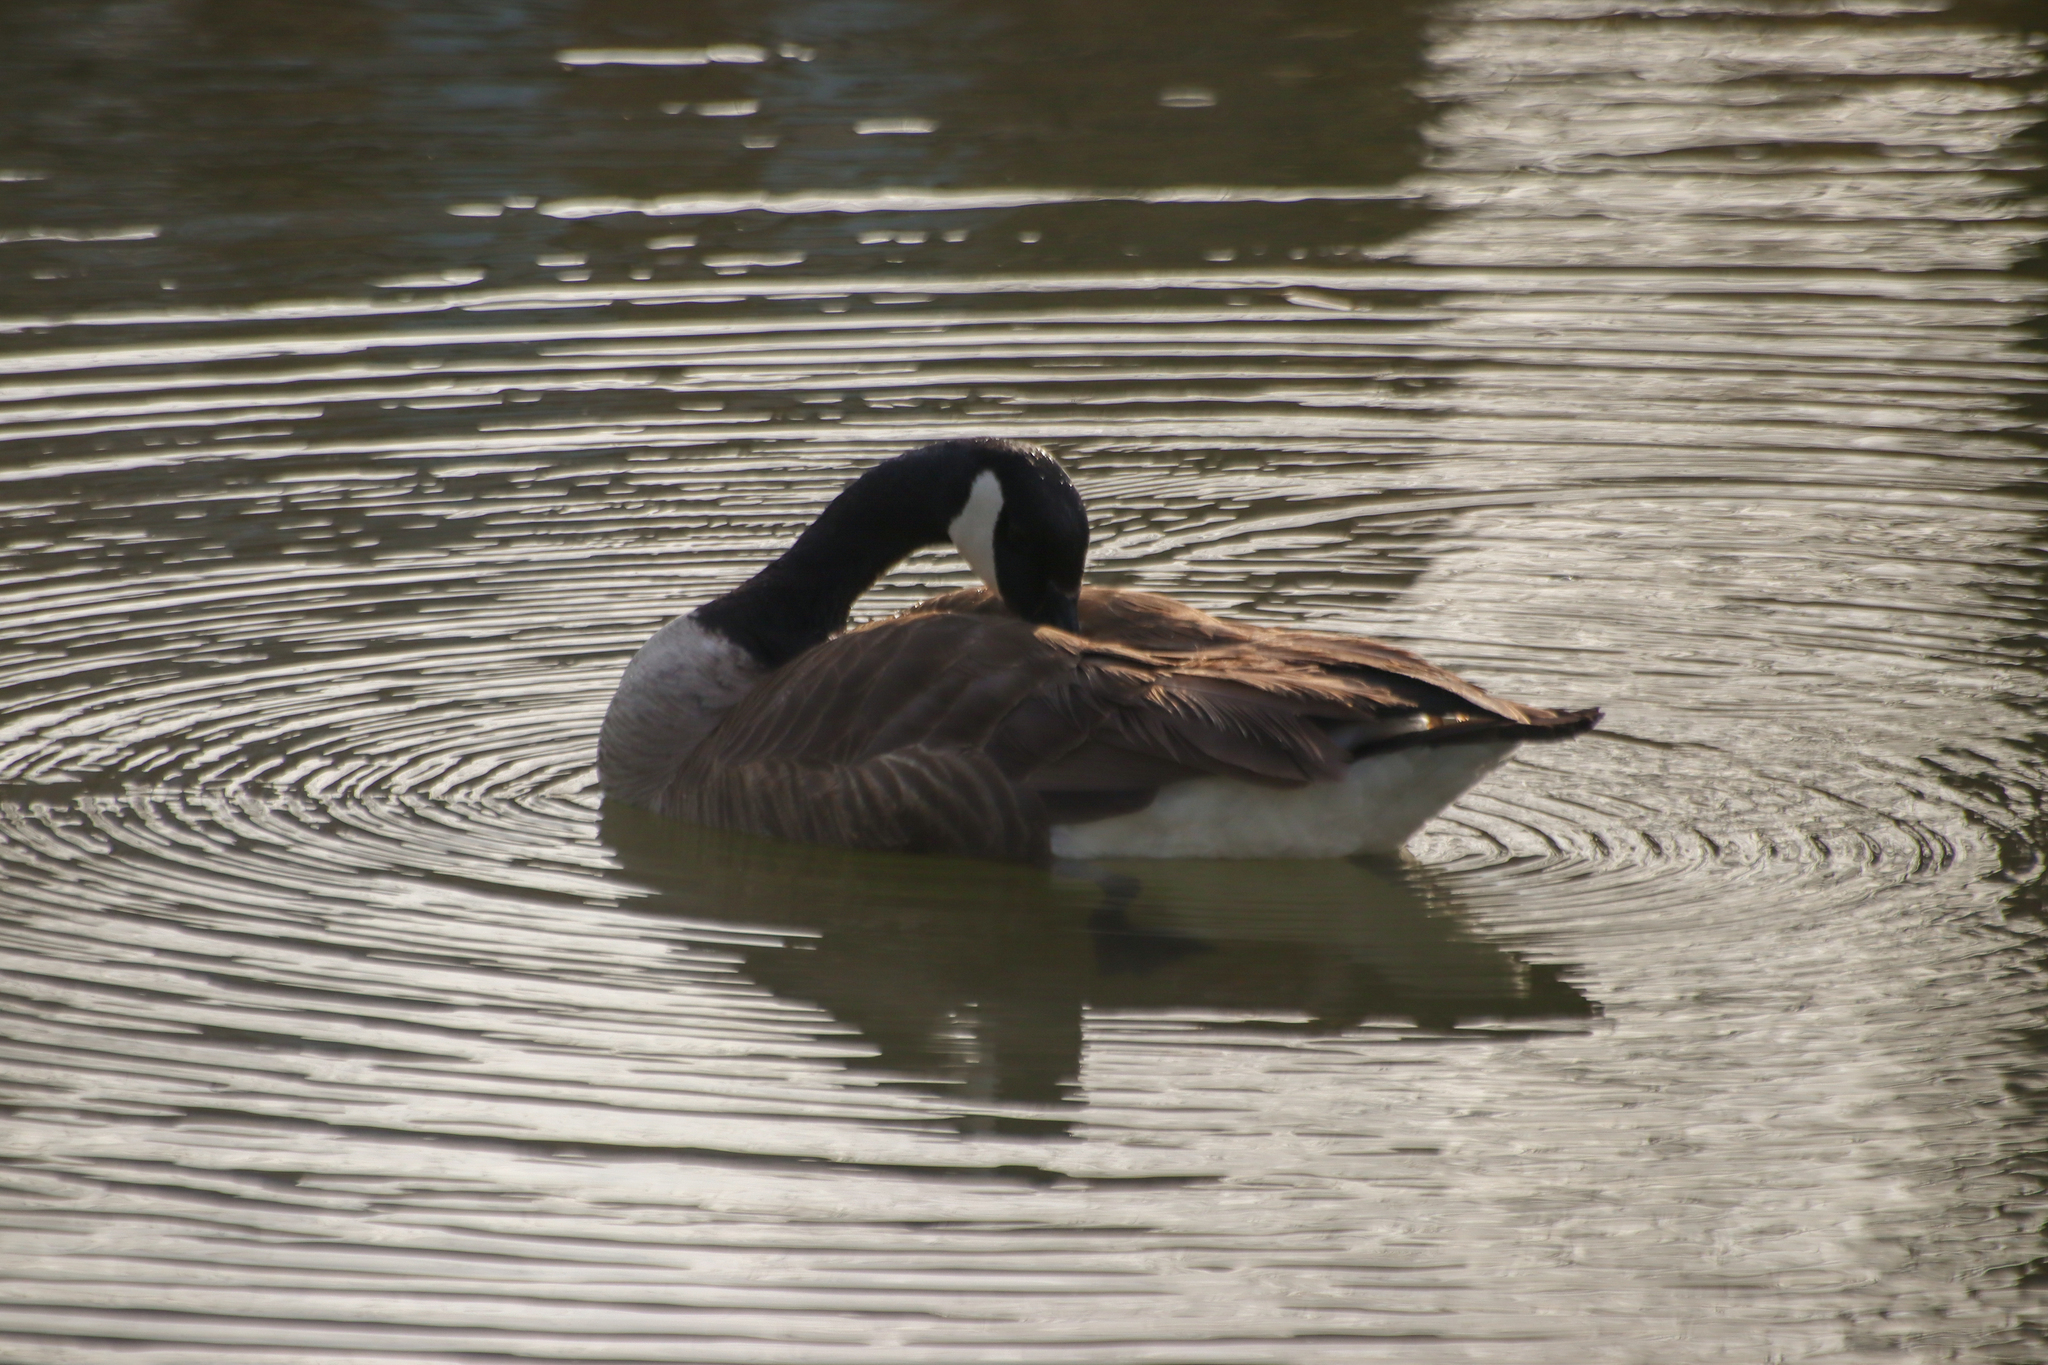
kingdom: Animalia
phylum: Chordata
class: Aves
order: Anseriformes
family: Anatidae
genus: Branta
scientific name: Branta canadensis
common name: Canada goose
